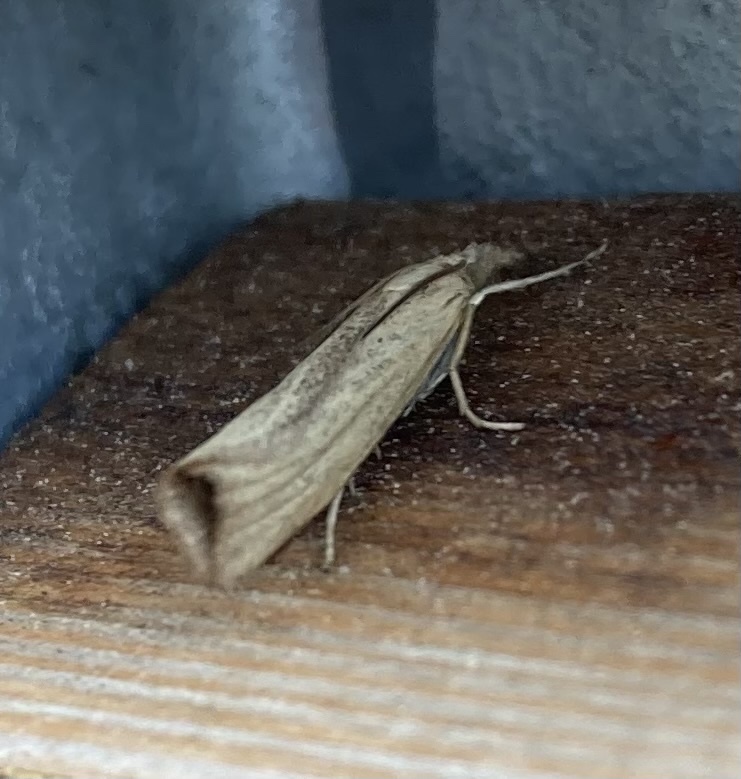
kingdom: Animalia
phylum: Arthropoda
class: Insecta
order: Lepidoptera
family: Crambidae
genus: Agriphila
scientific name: Agriphila straminella
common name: Straw grass-veneer
